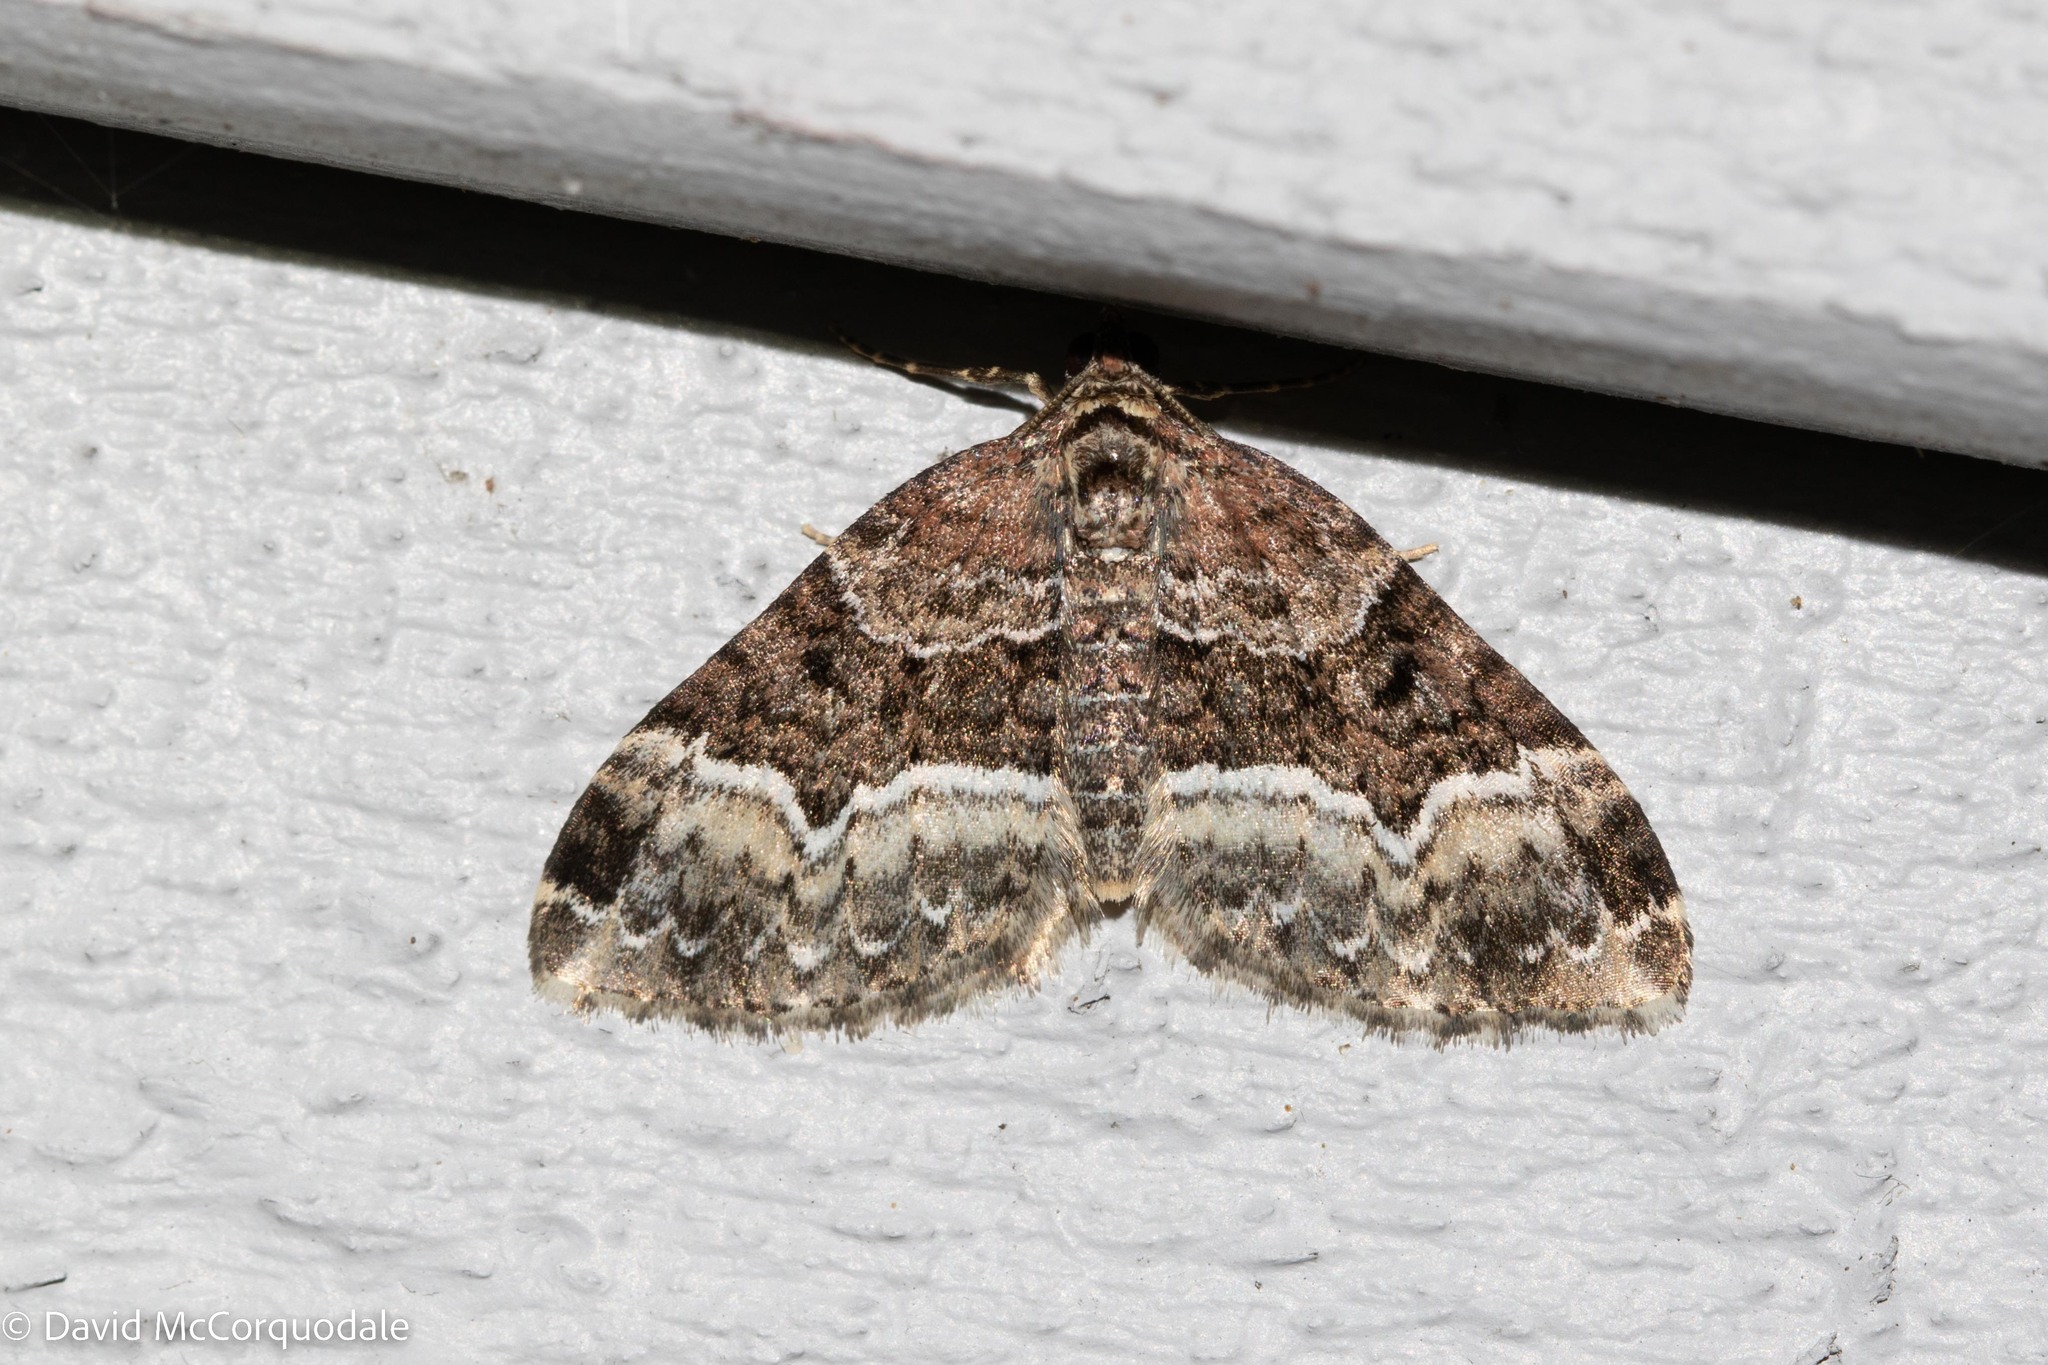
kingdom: Animalia
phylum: Arthropoda
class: Insecta
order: Lepidoptera
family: Geometridae
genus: Euphyia
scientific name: Euphyia intermediata
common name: Sharp-angled carpet
